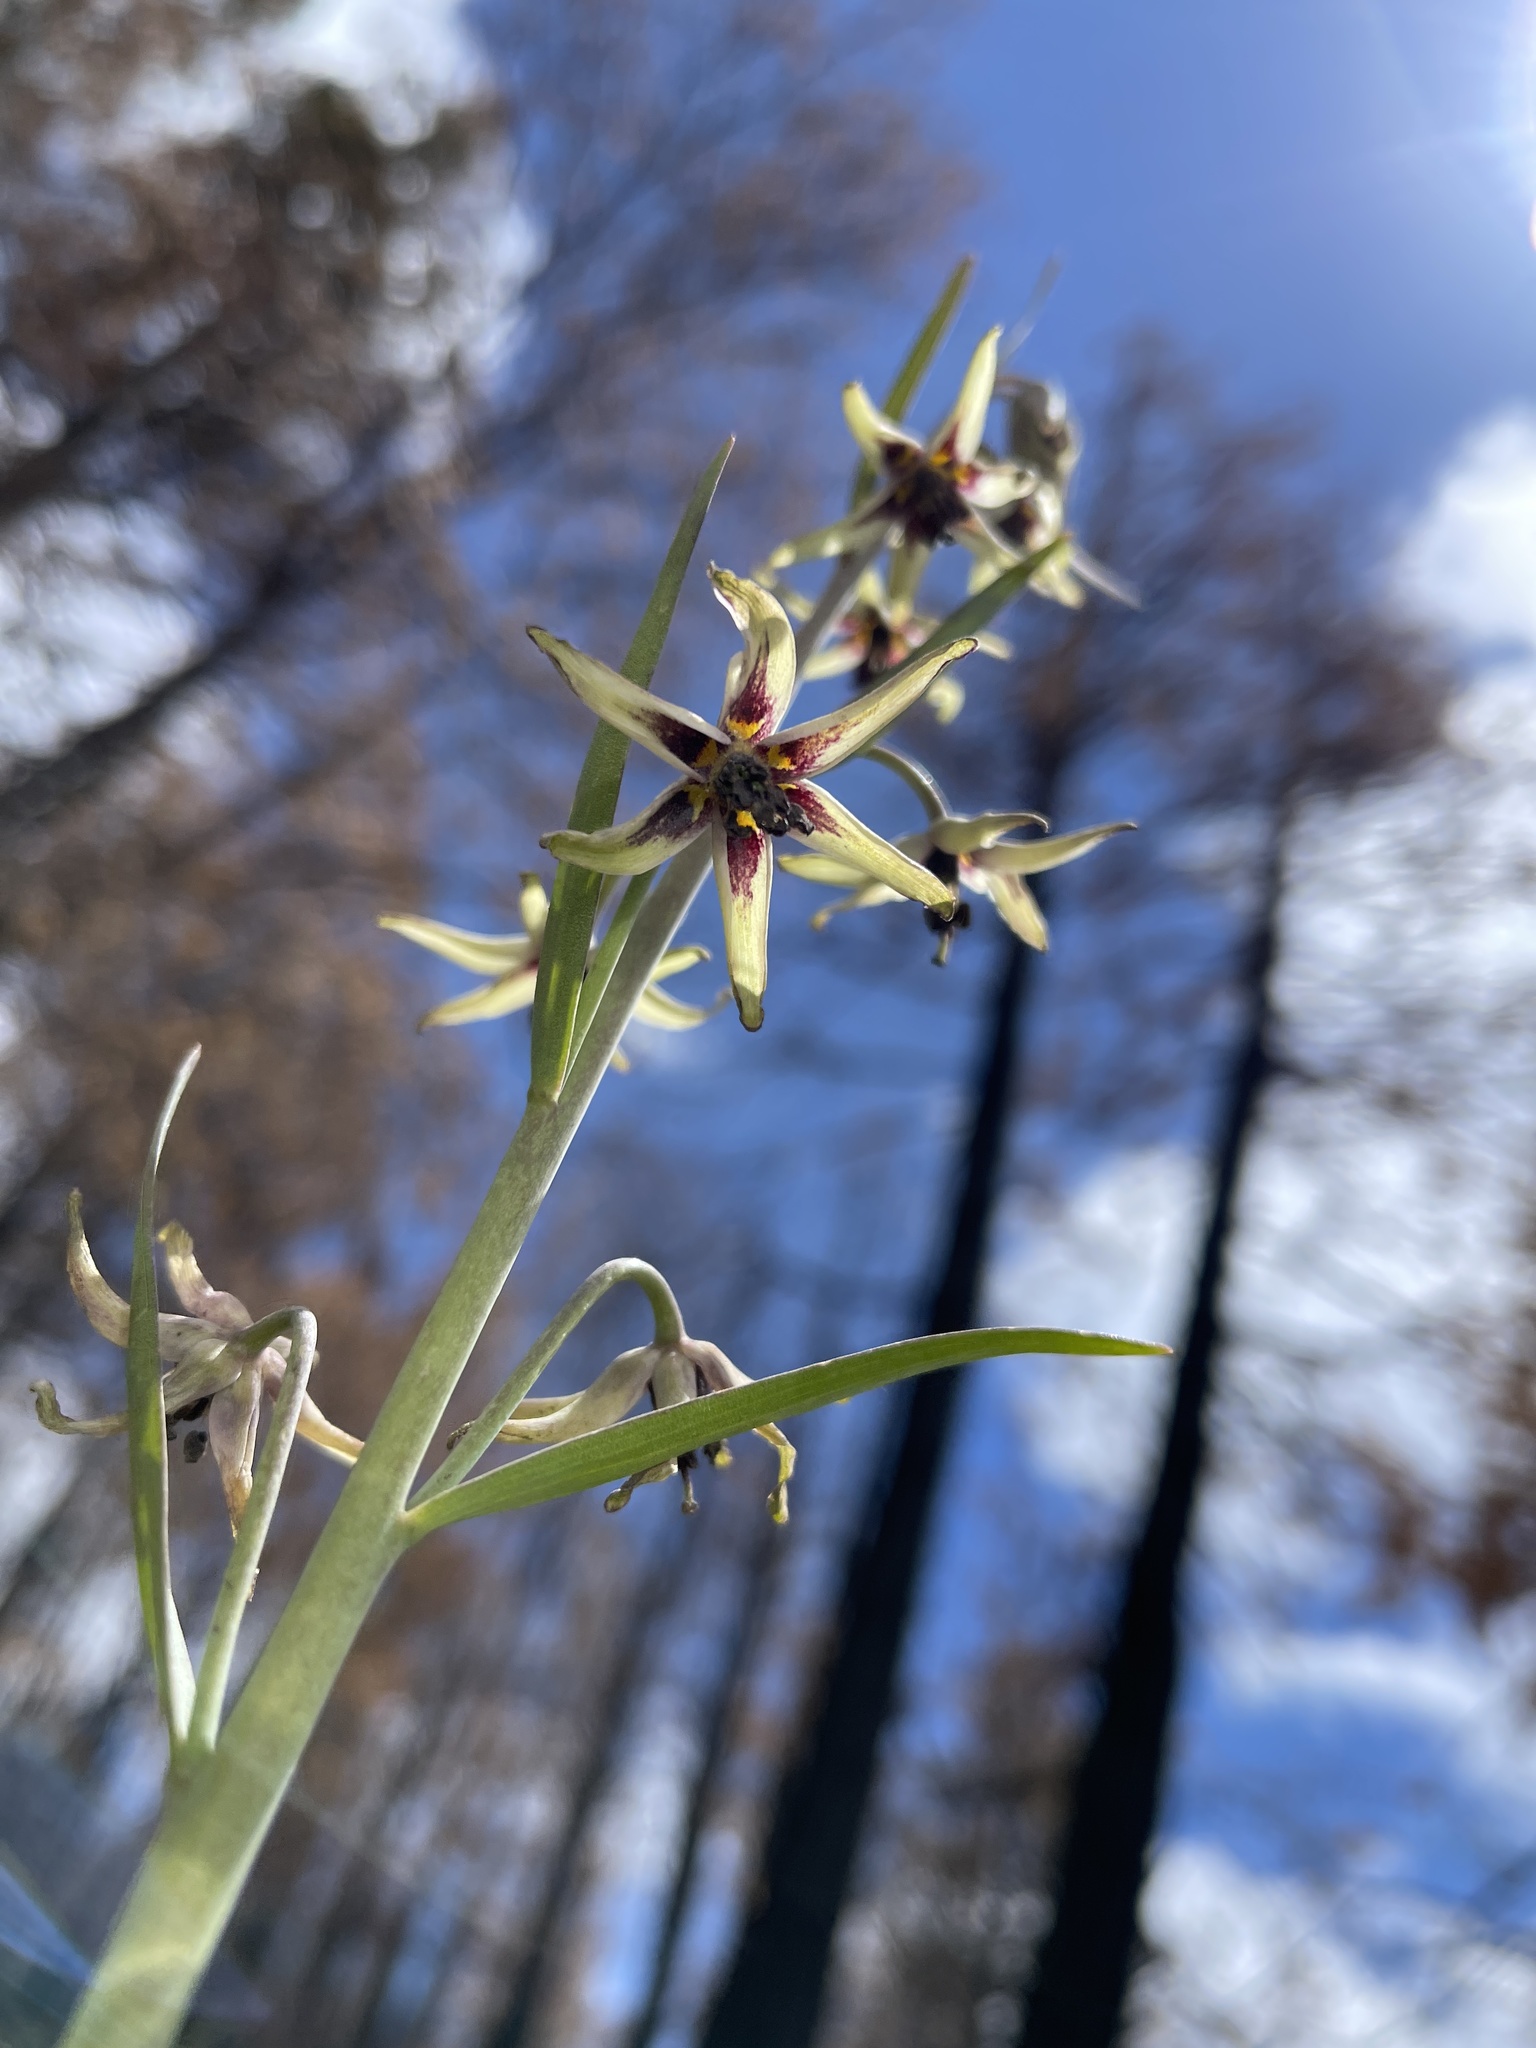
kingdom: Plantae
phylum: Tracheophyta
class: Liliopsida
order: Liliales
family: Liliaceae
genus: Fritillaria
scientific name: Fritillaria brandegeei
